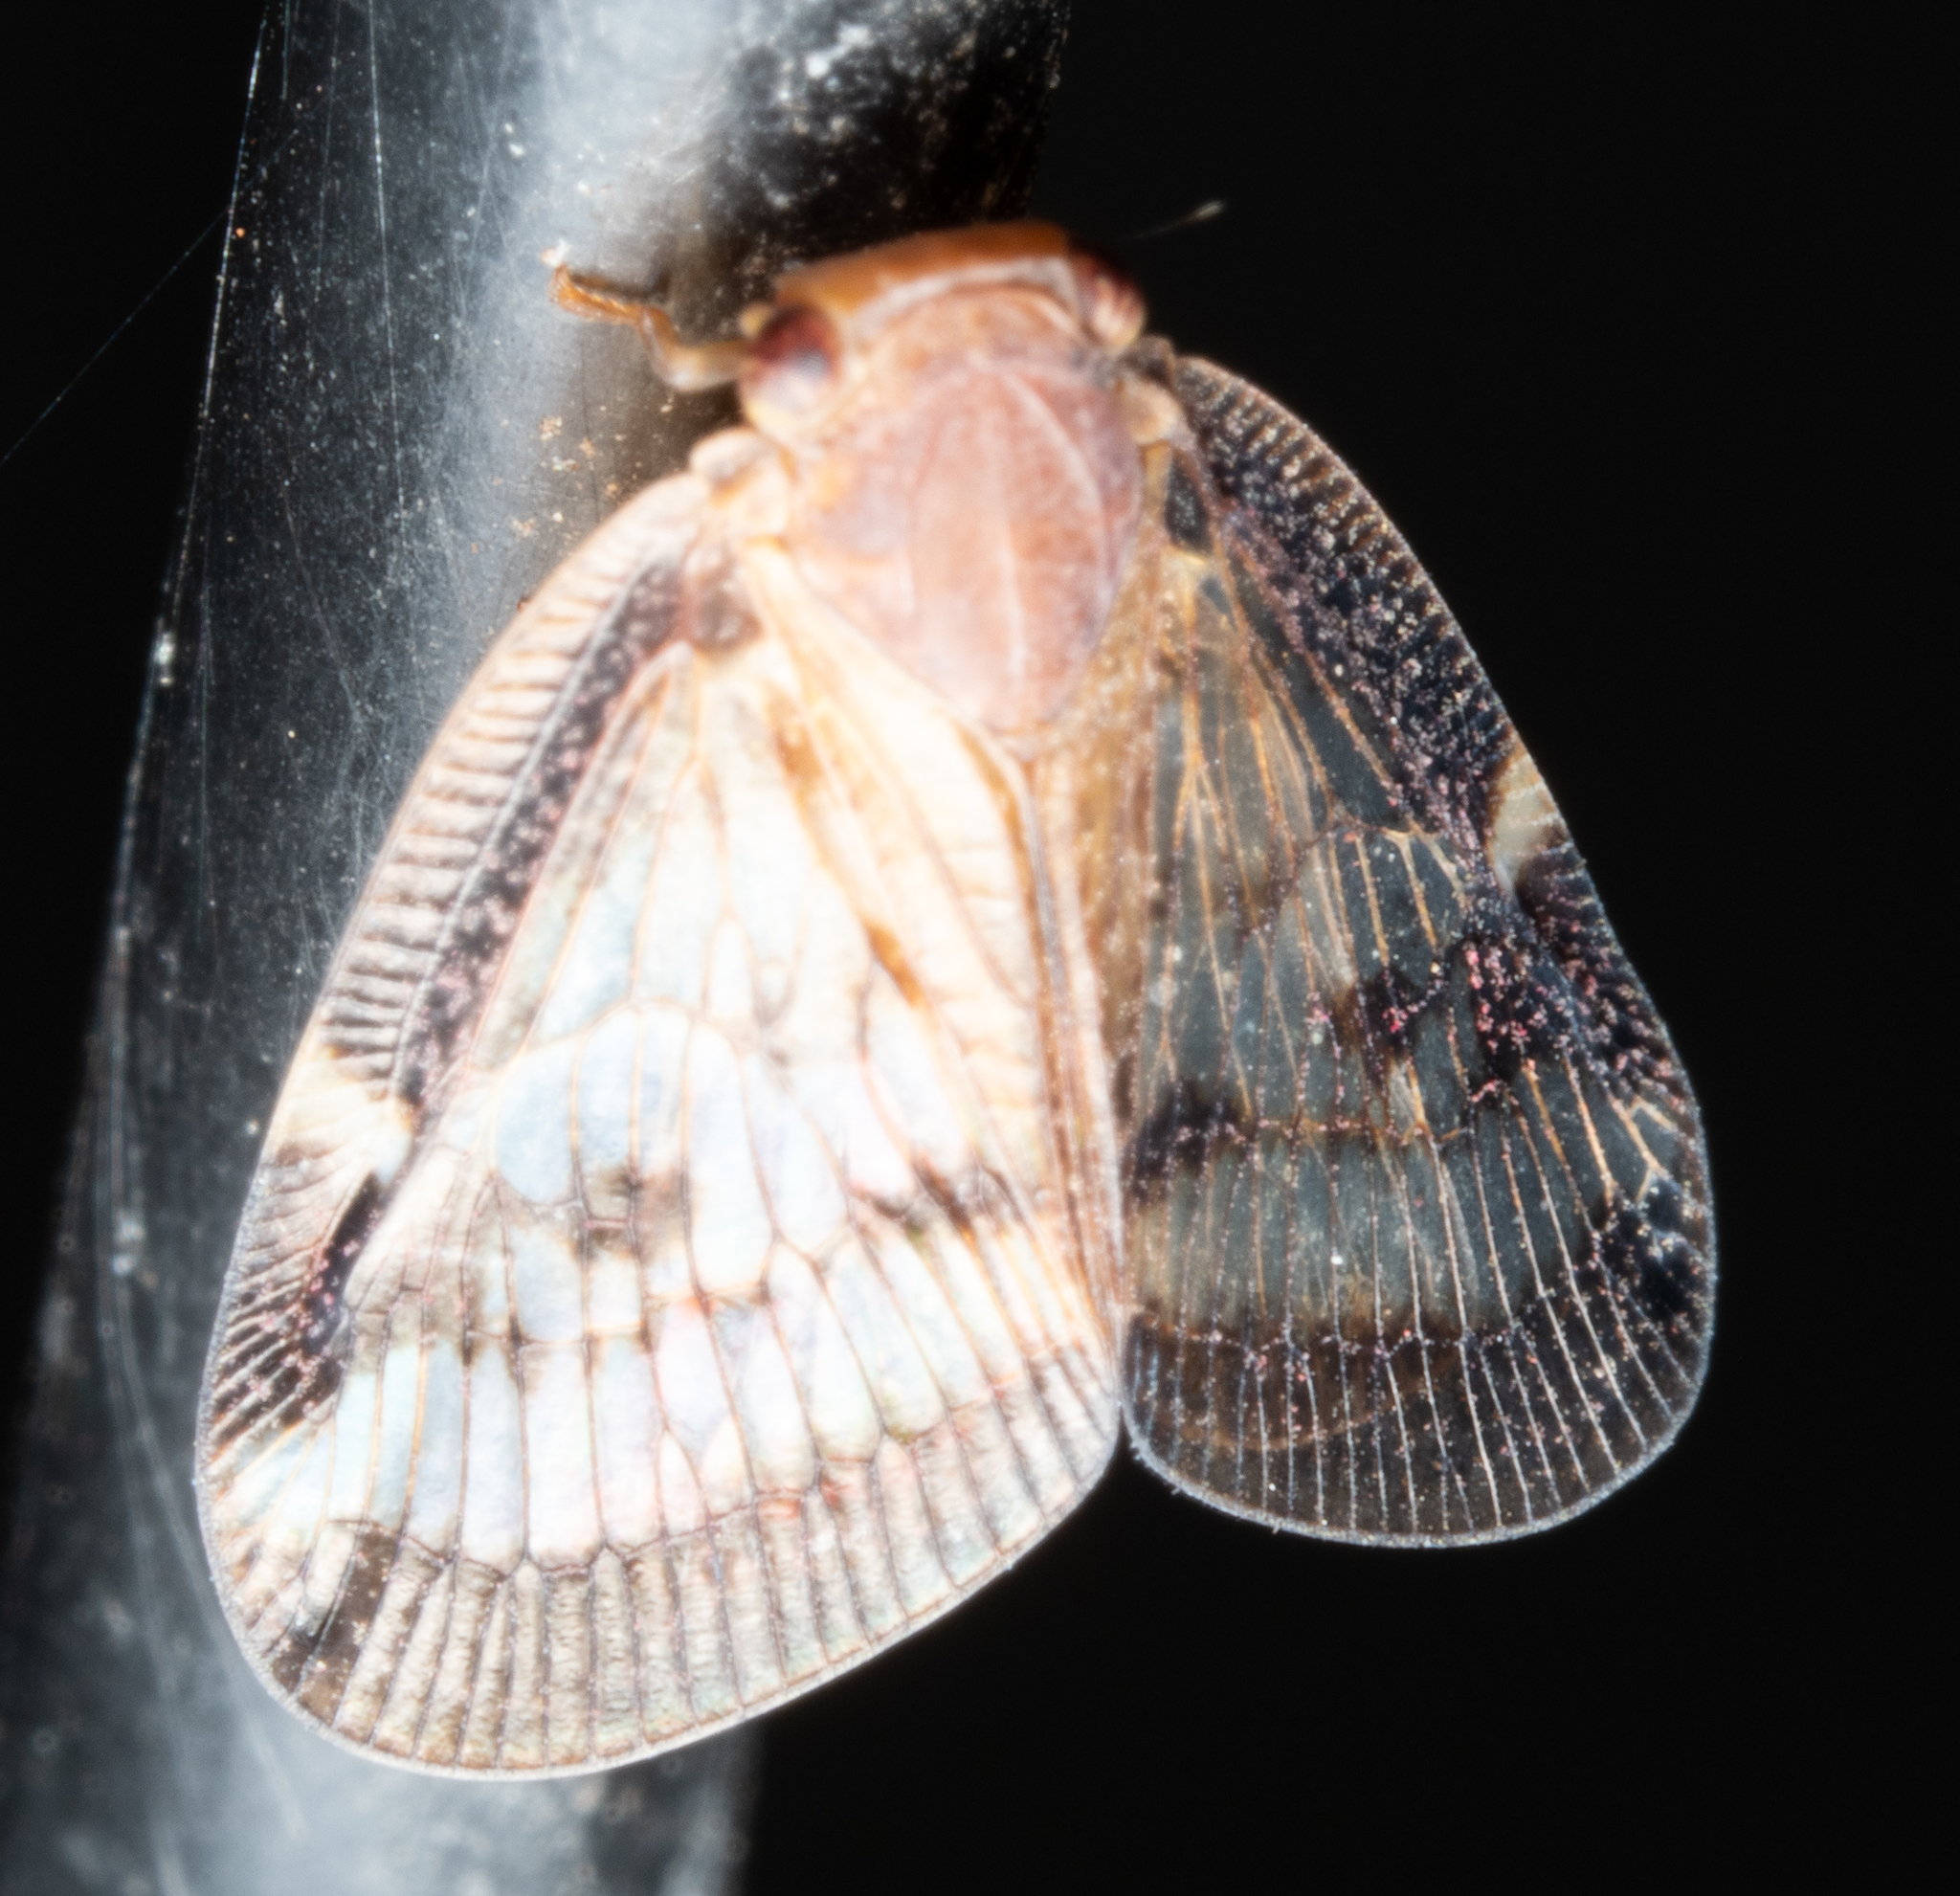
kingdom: Animalia
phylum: Arthropoda
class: Insecta
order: Hemiptera
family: Ricaniidae
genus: Scolypopa
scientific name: Scolypopa australis
